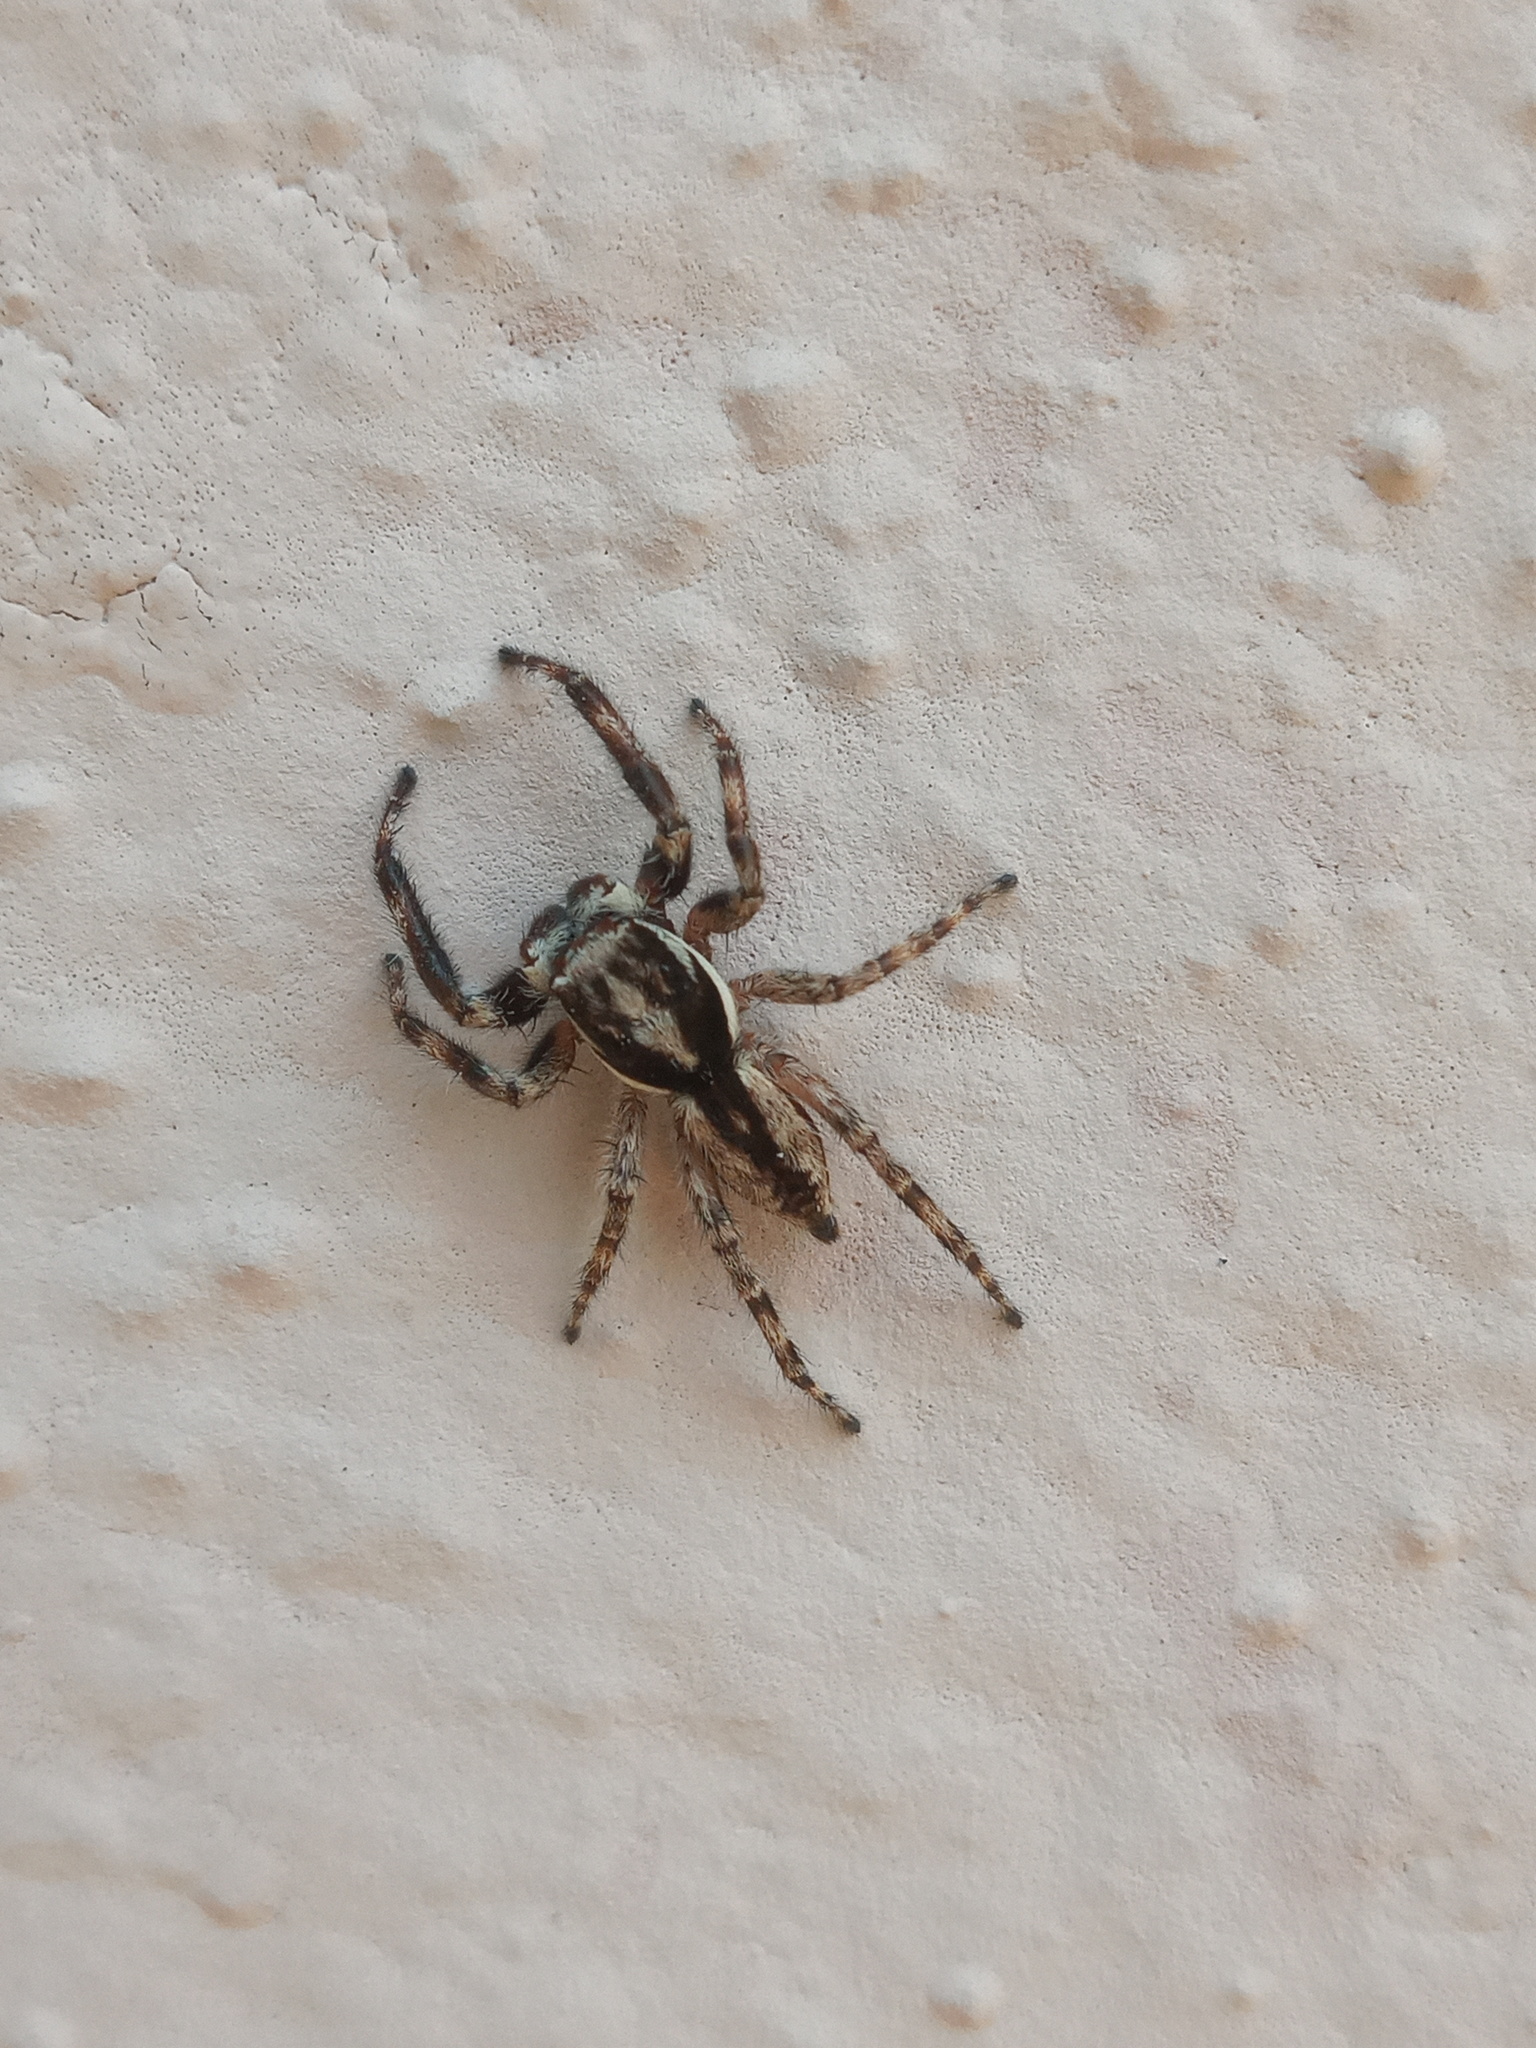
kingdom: Animalia
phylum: Arthropoda
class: Arachnida
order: Araneae
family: Salticidae
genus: Menemerus
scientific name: Menemerus bivittatus
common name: Gray wall jumper
